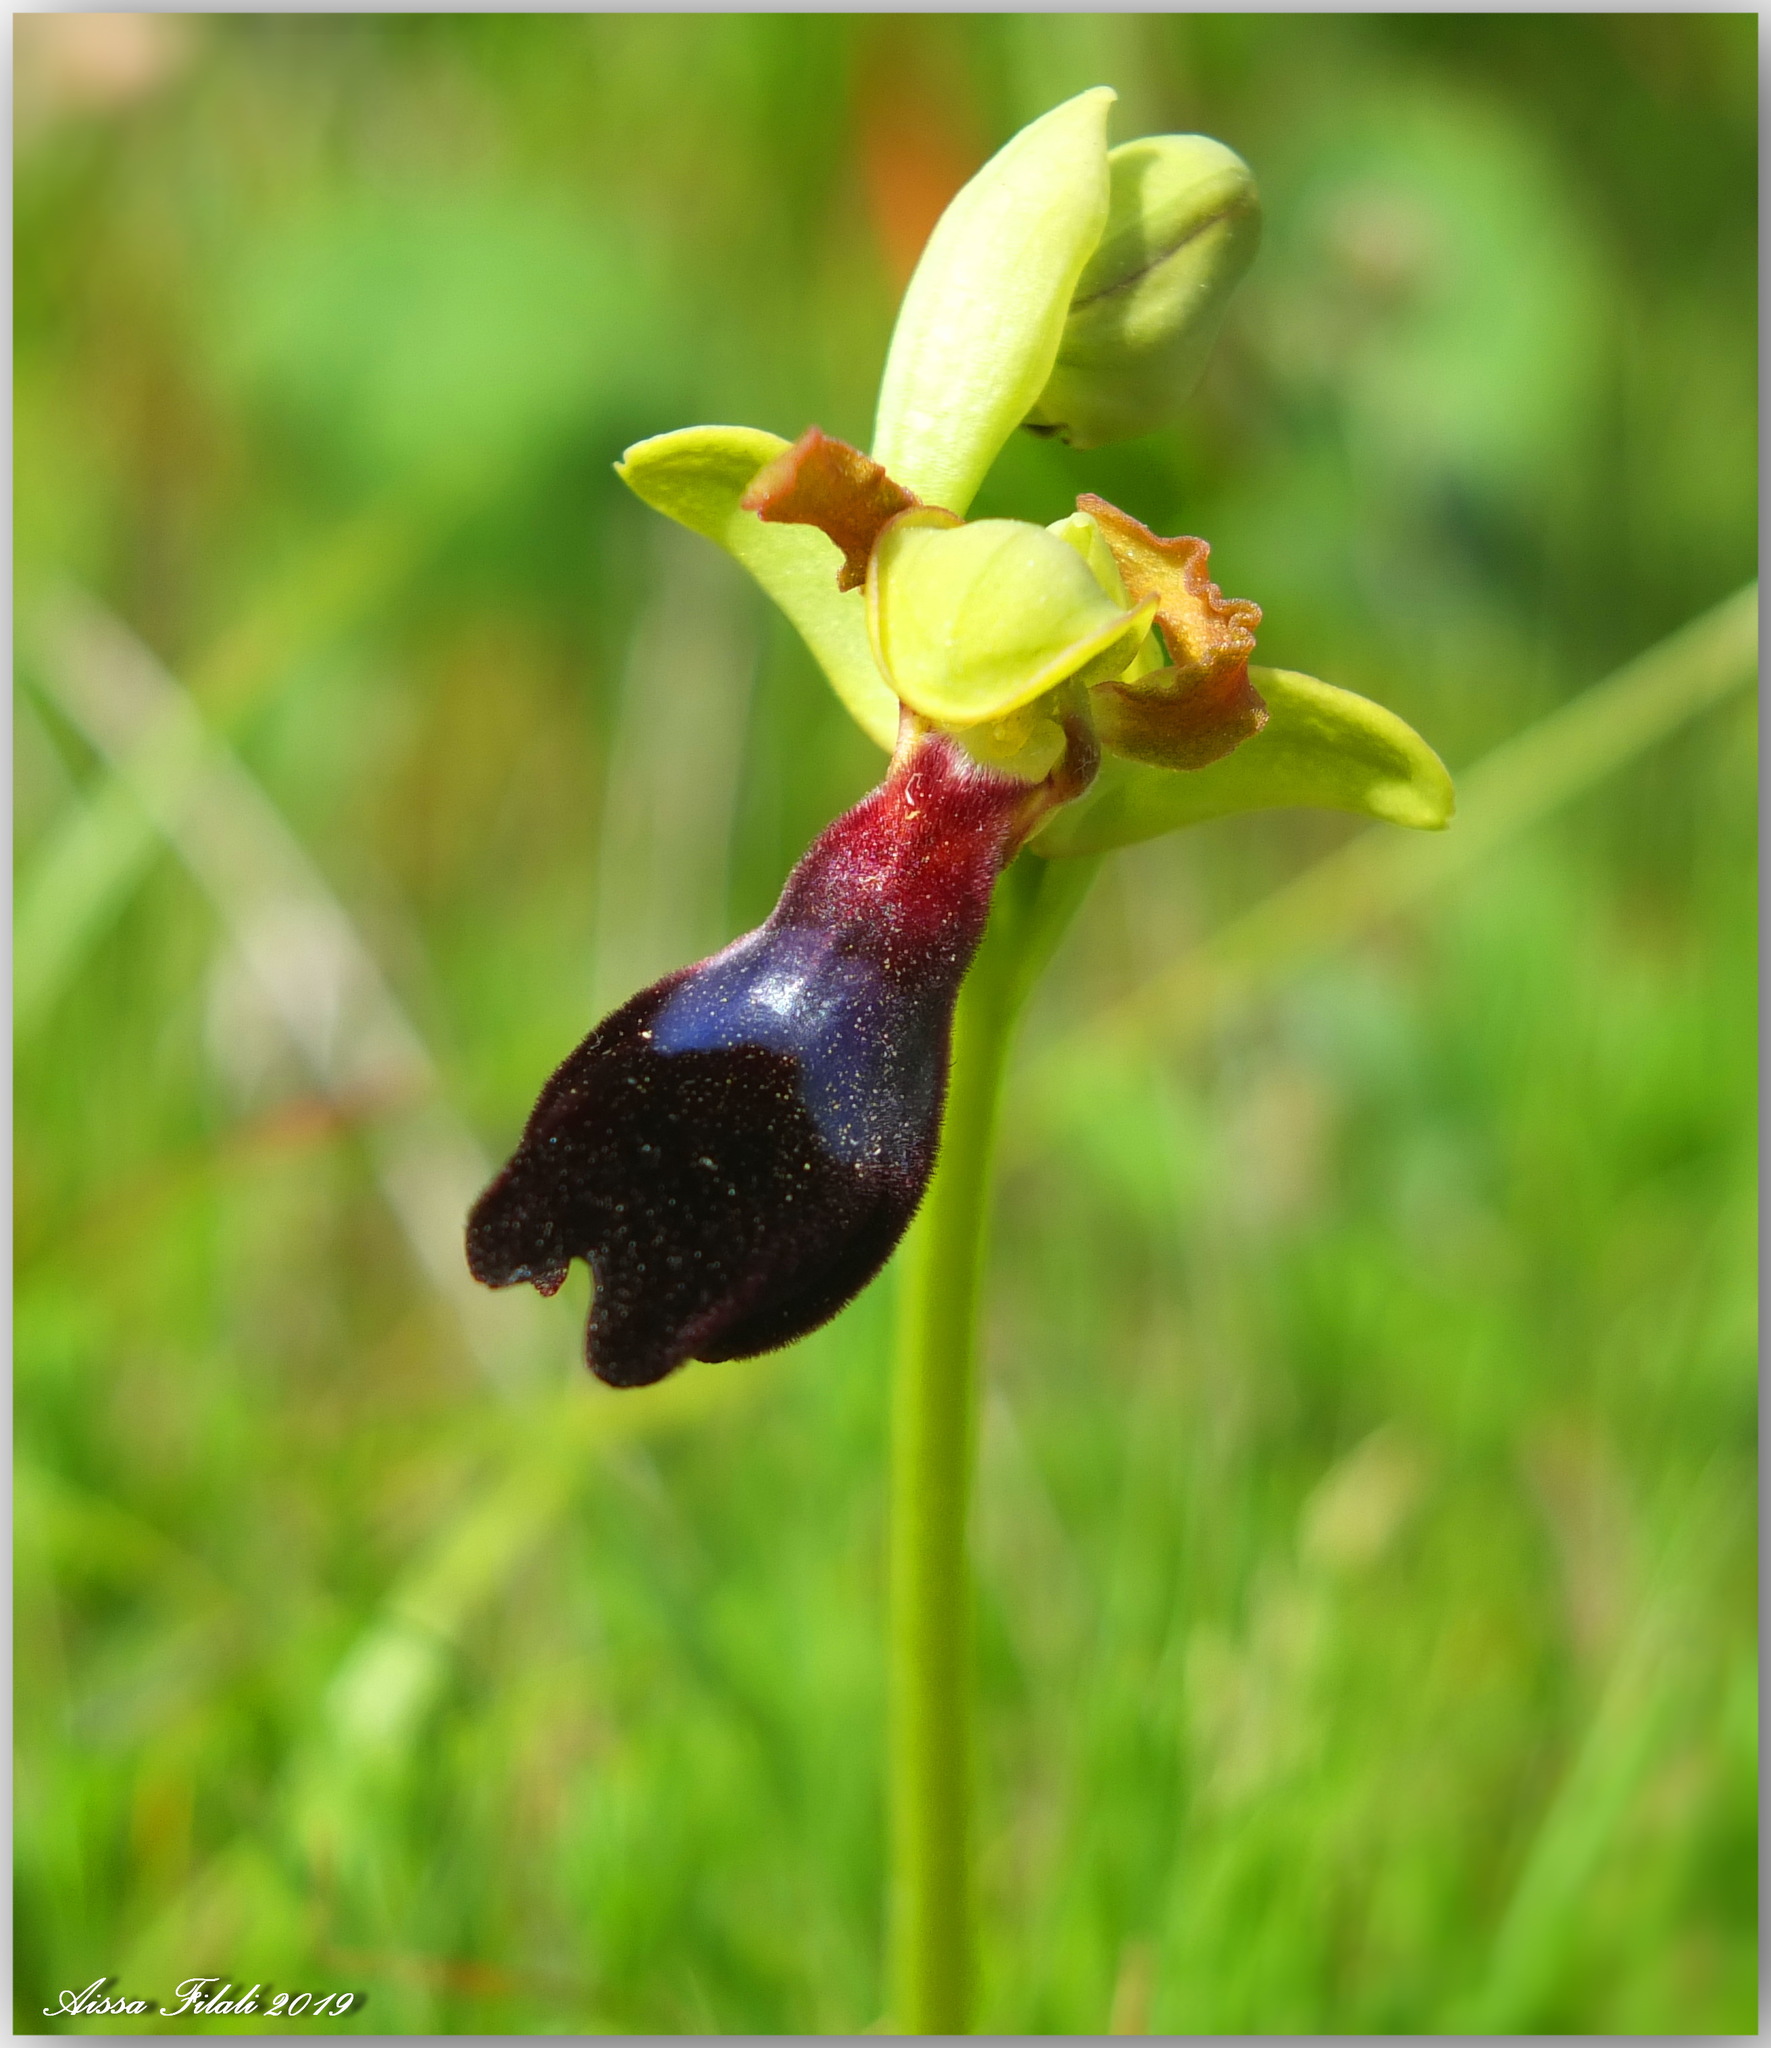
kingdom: Plantae
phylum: Tracheophyta
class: Liliopsida
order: Asparagales
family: Orchidaceae
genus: Ophrys
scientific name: Ophrys atlantica
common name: Atlantic ophrys
